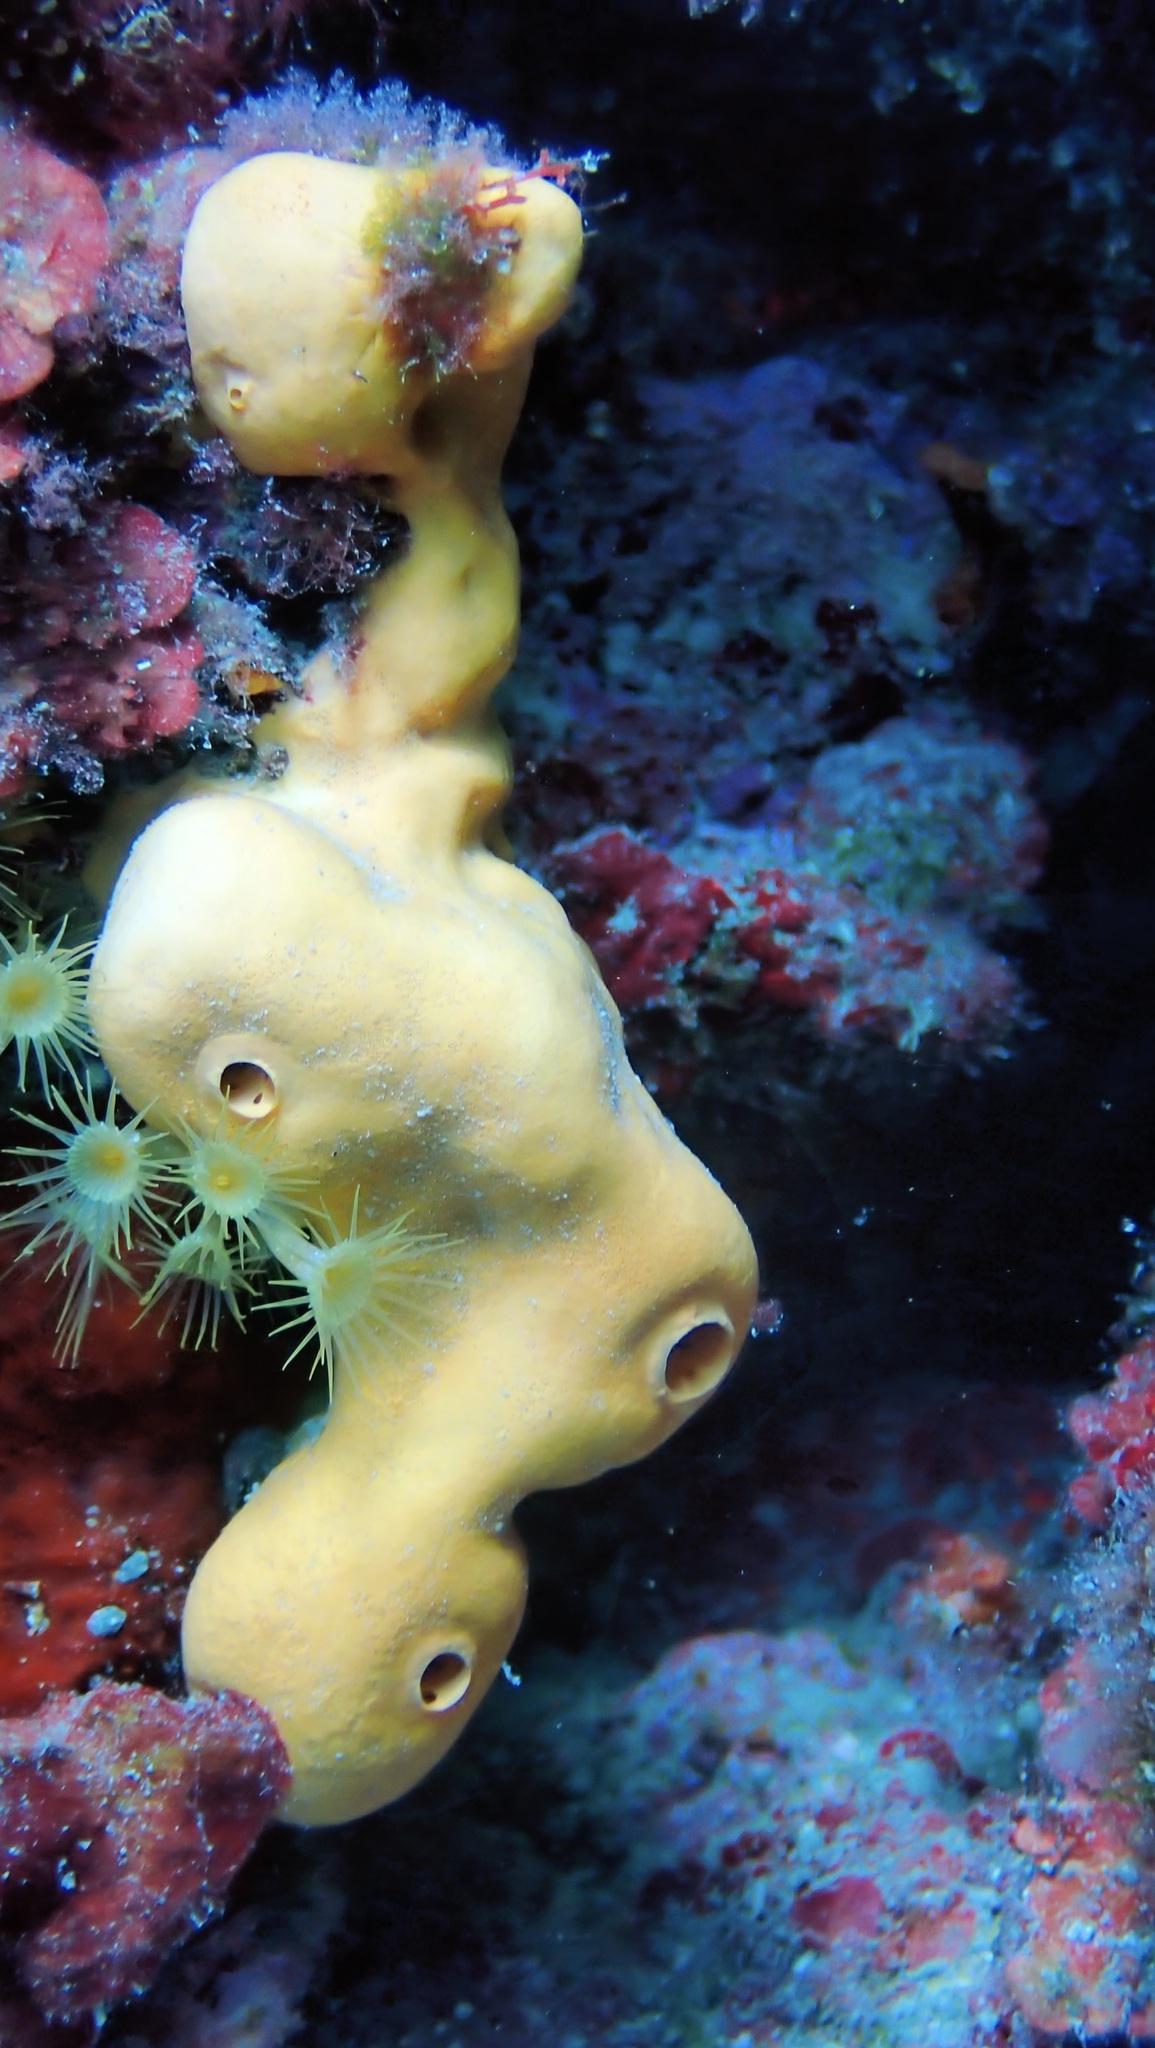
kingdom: Animalia
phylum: Porifera
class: Demospongiae
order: Agelasida
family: Agelasidae
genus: Agelas
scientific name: Agelas oroides
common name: Maltese sponge
